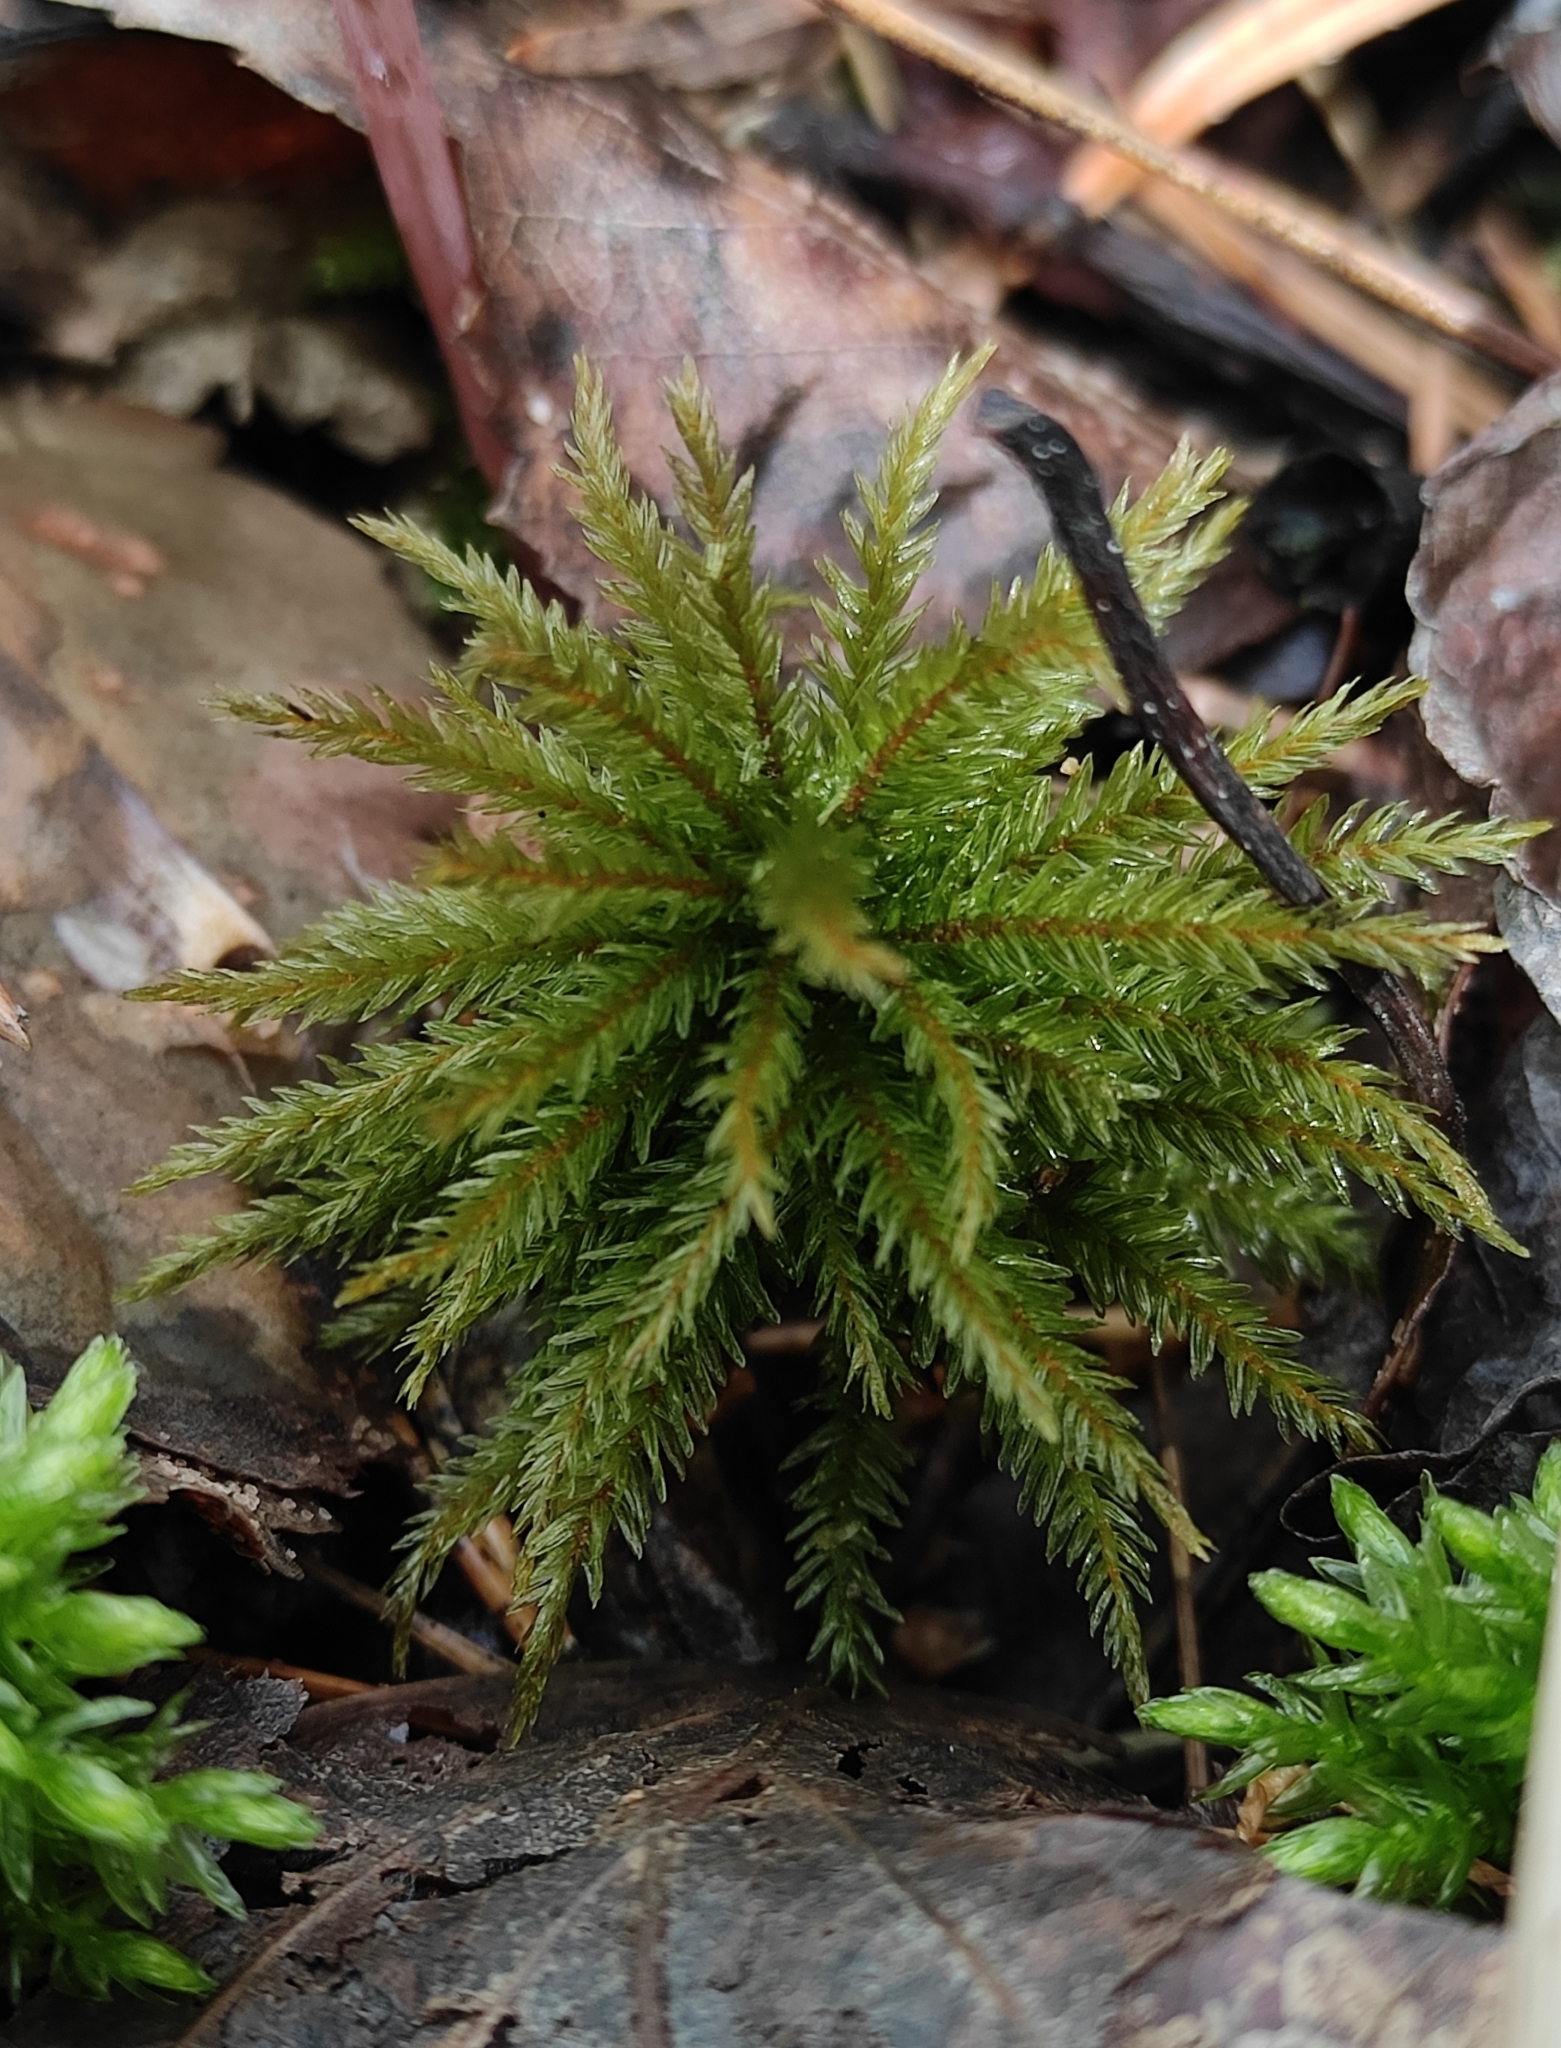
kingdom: Plantae
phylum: Bryophyta
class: Bryopsida
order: Hypnales
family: Climaciaceae
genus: Climacium
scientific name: Climacium dendroides
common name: Northern tree moss
